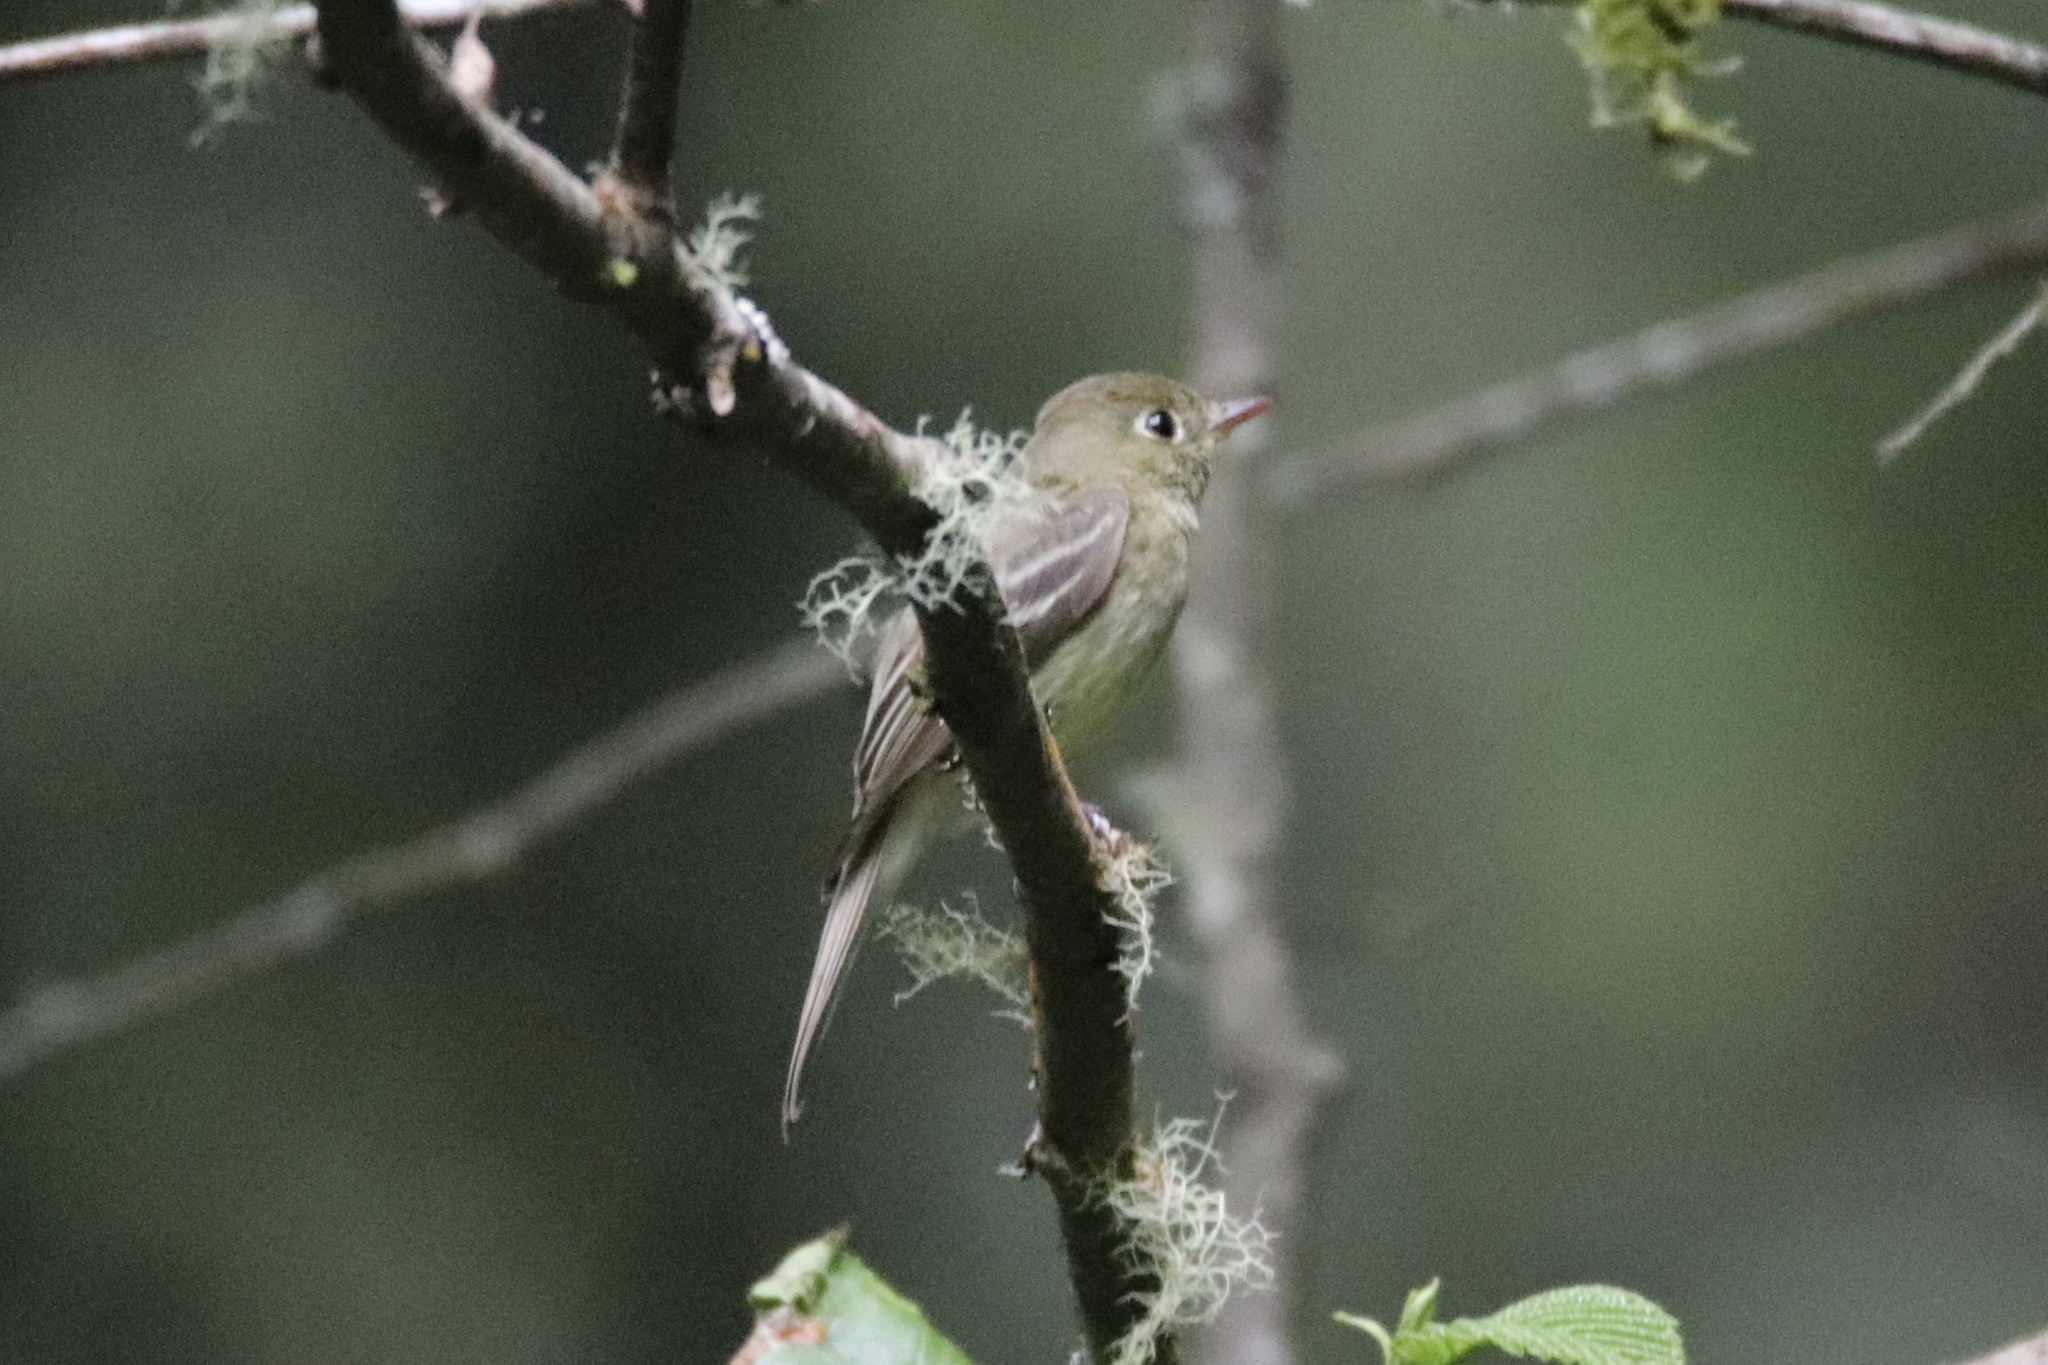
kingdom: Animalia
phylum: Chordata
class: Aves
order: Passeriformes
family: Tyrannidae
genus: Empidonax
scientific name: Empidonax difficilis
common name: Pacific-slope flycatcher
